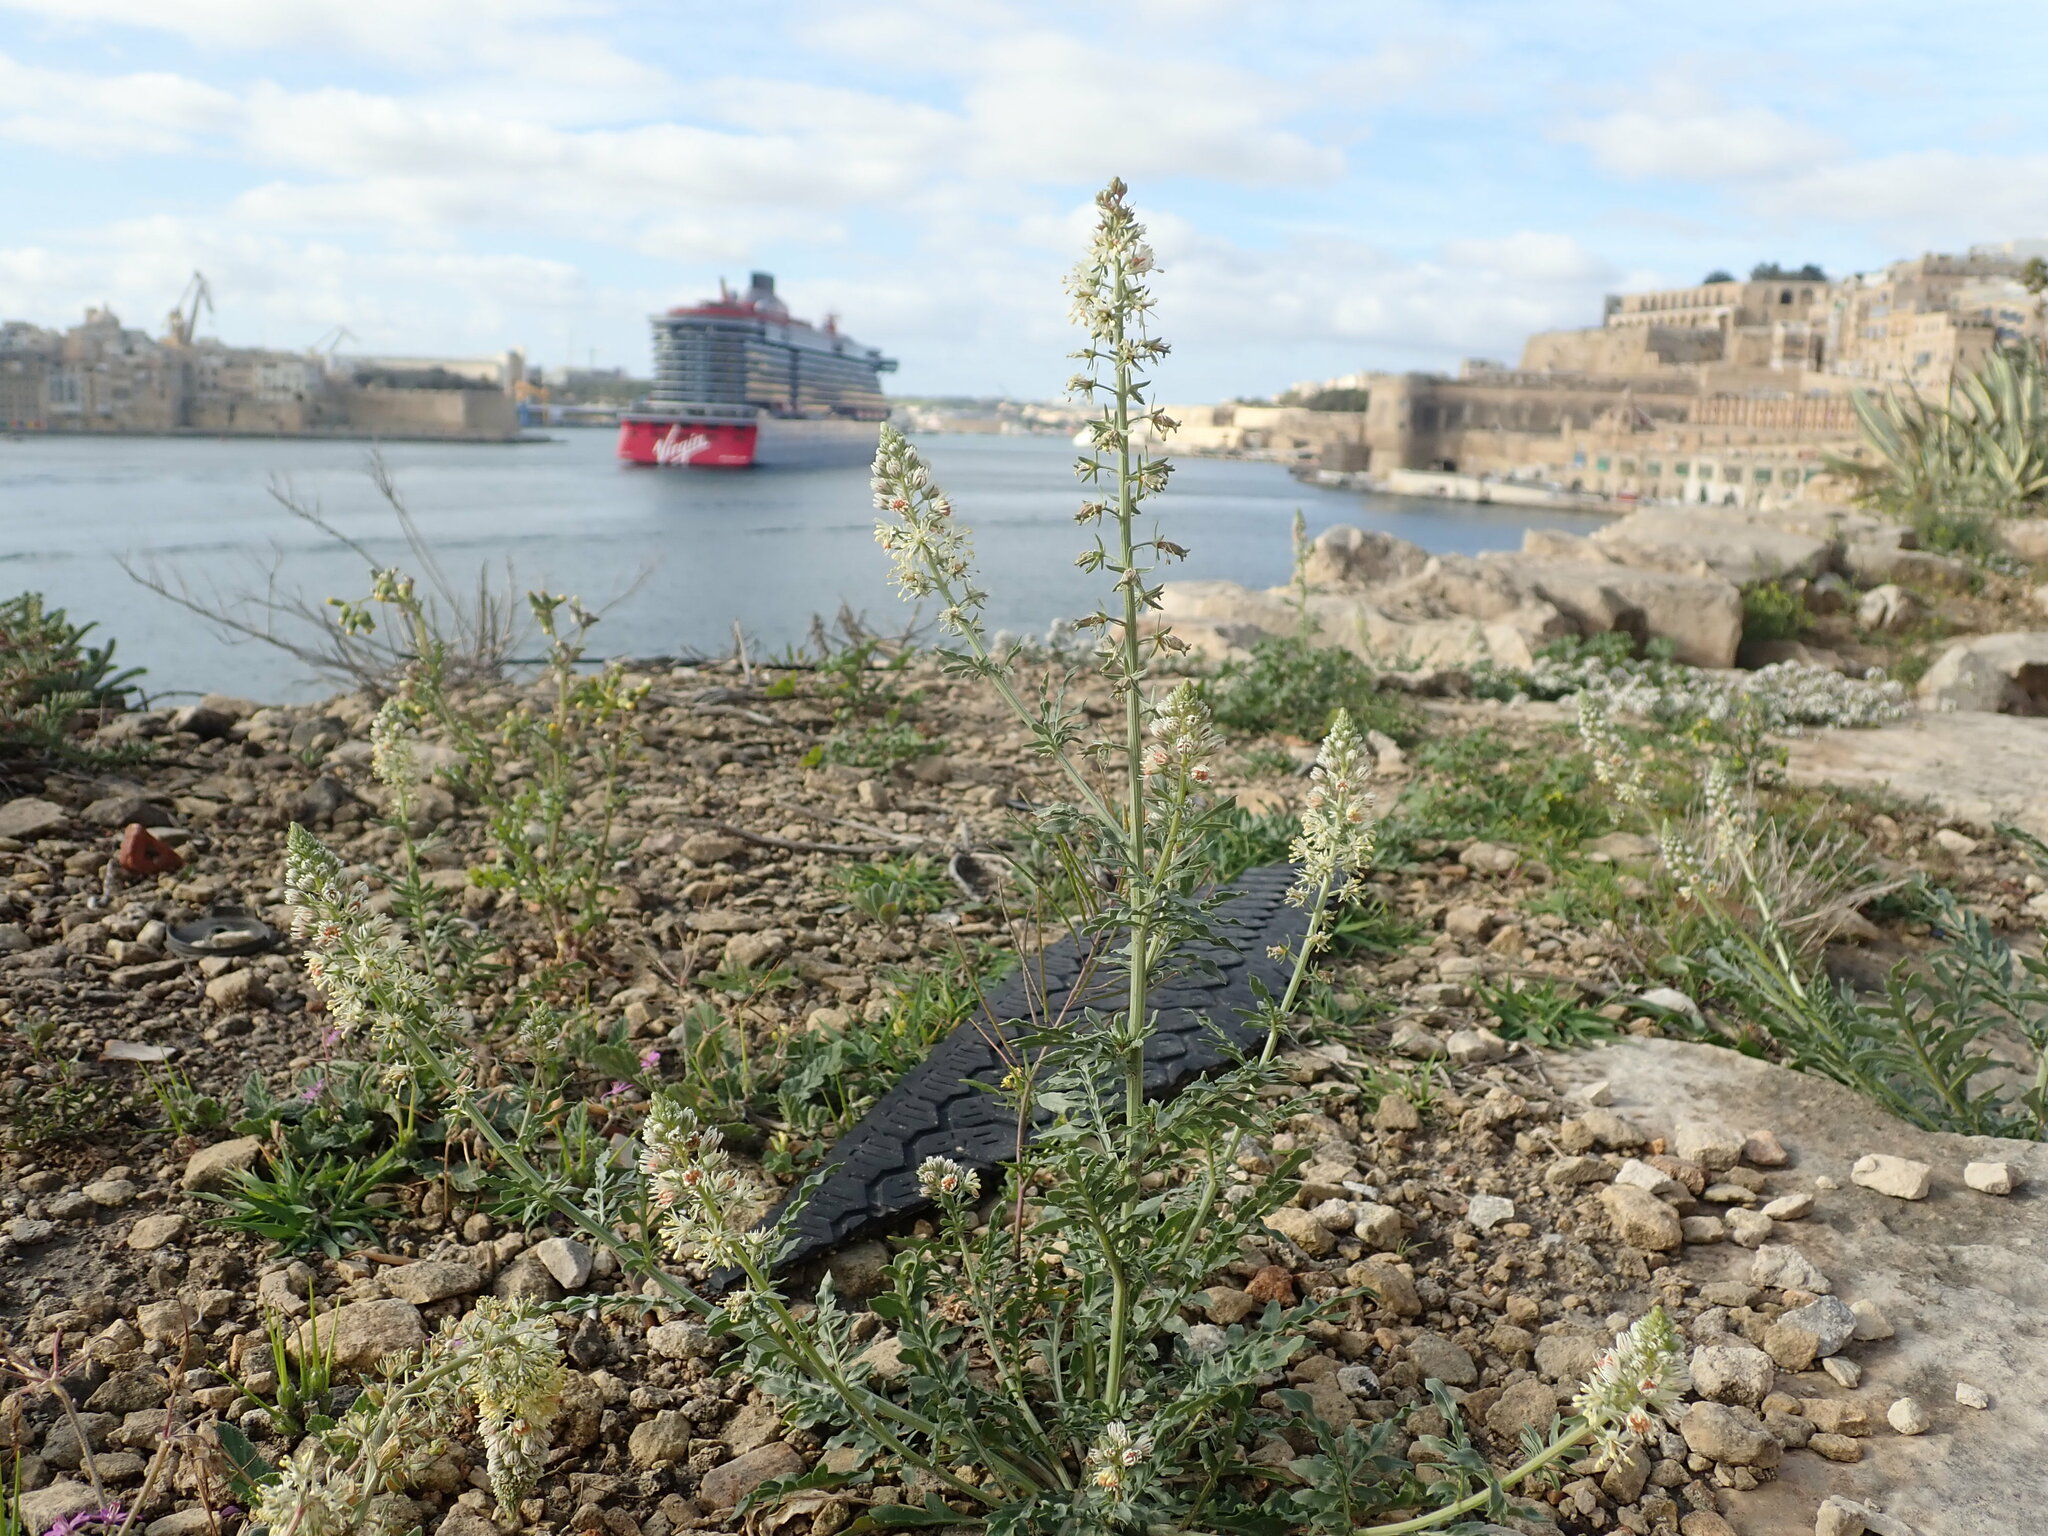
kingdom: Plantae
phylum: Tracheophyta
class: Magnoliopsida
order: Brassicales
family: Resedaceae
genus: Reseda
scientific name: Reseda alba
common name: White mignonette
